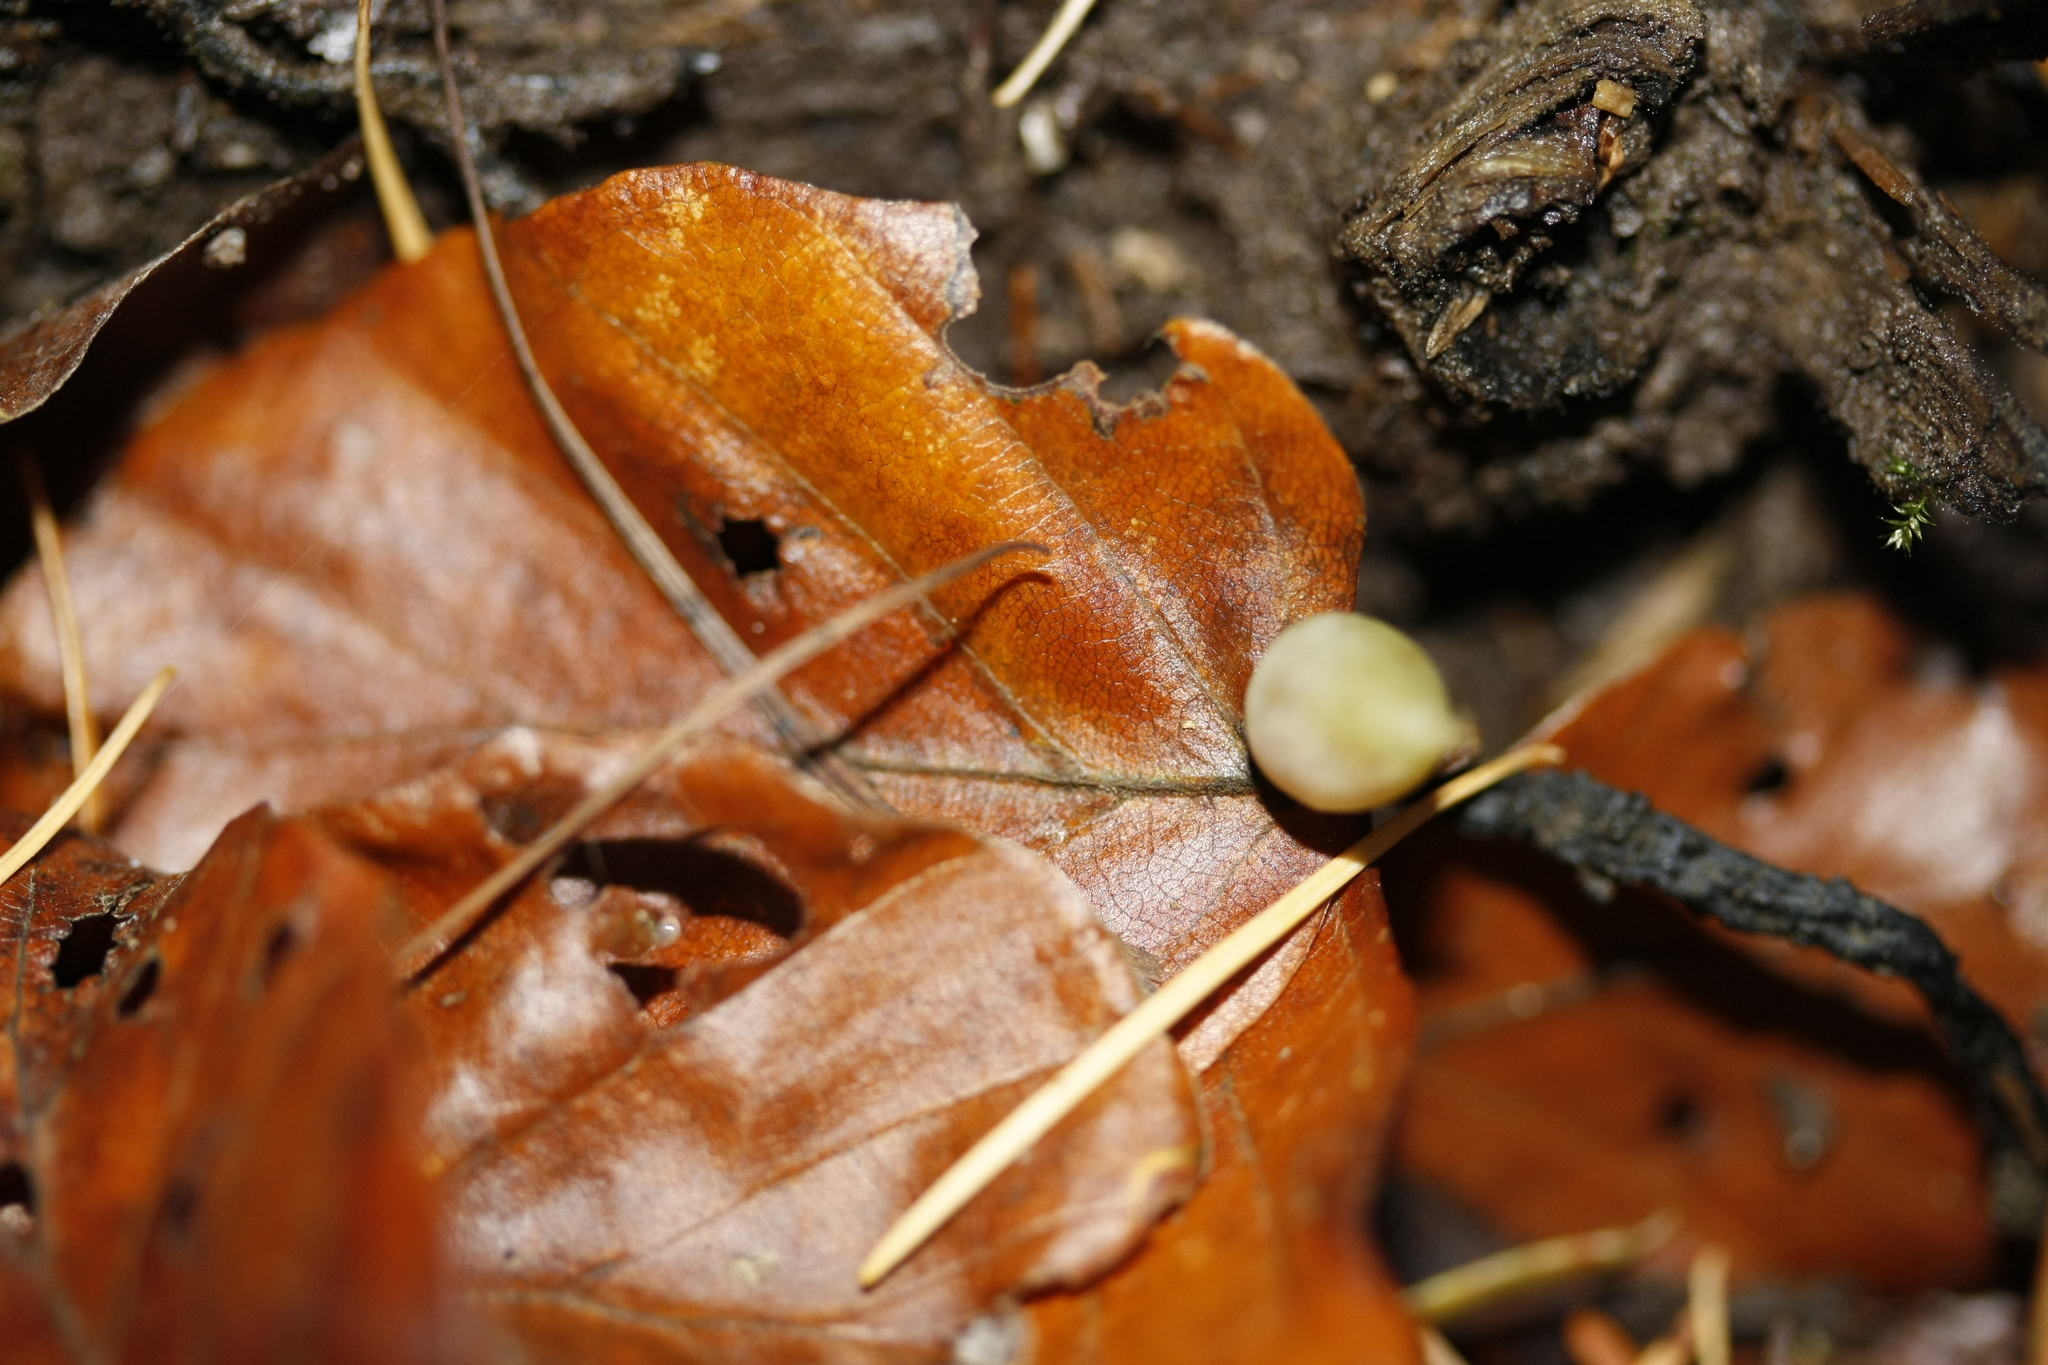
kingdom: Animalia
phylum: Arthropoda
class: Insecta
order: Diptera
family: Cecidomyiidae
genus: Mikiola
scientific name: Mikiola fagi
